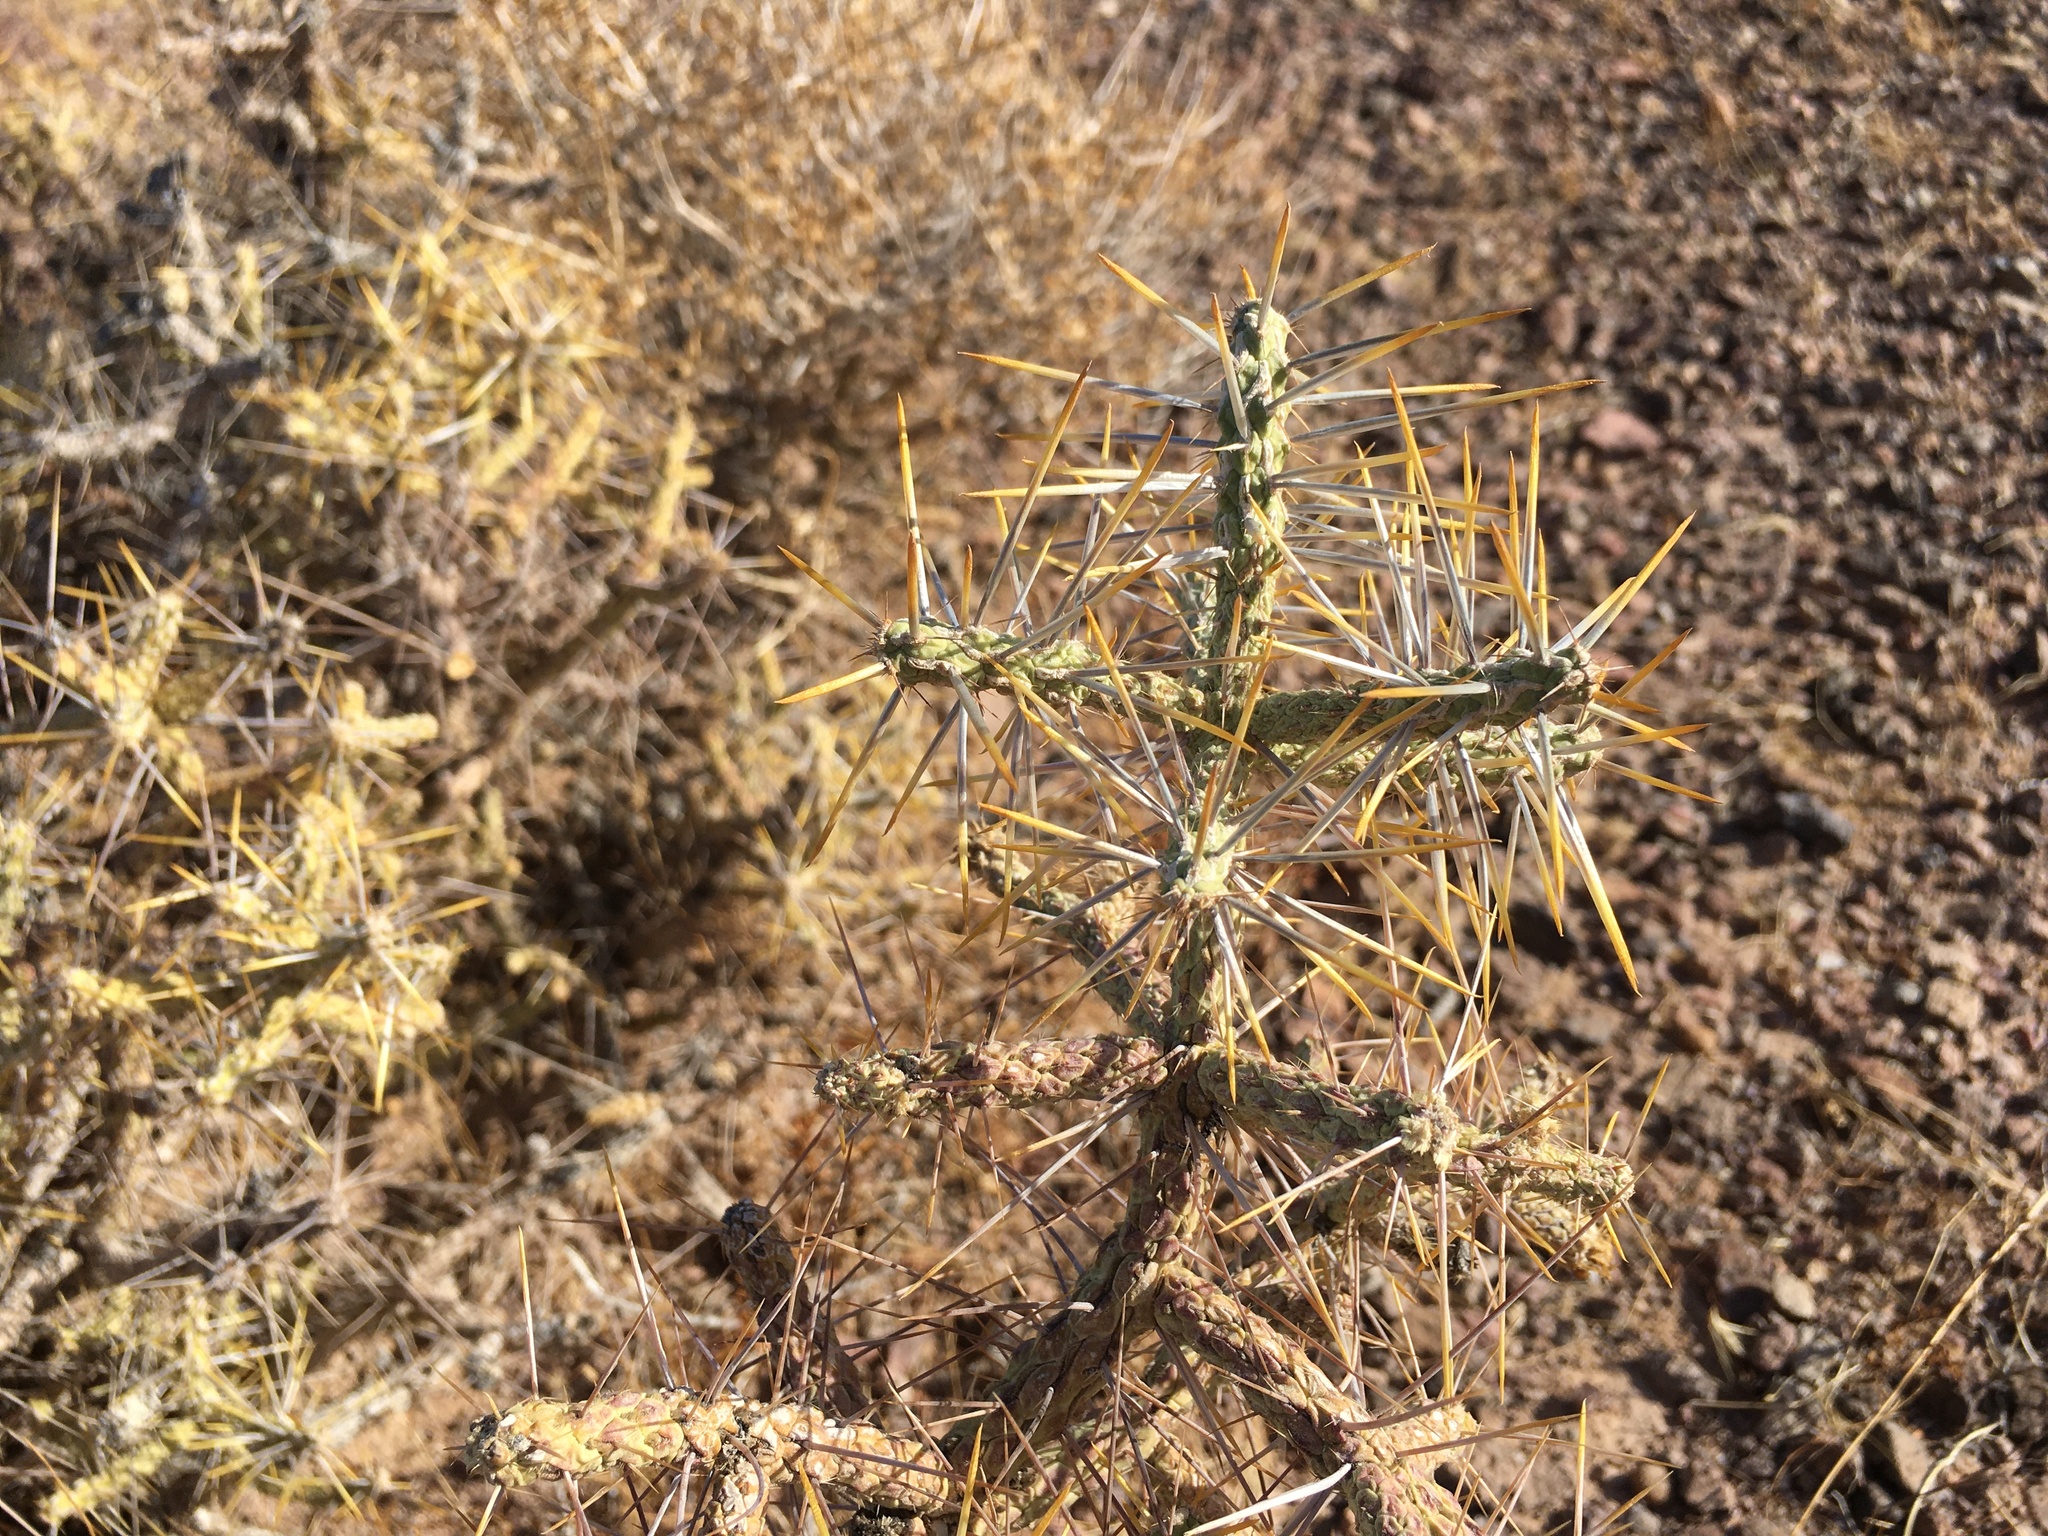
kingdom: Plantae
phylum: Tracheophyta
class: Magnoliopsida
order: Caryophyllales
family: Cactaceae
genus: Cylindropuntia
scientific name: Cylindropuntia ramosissima
